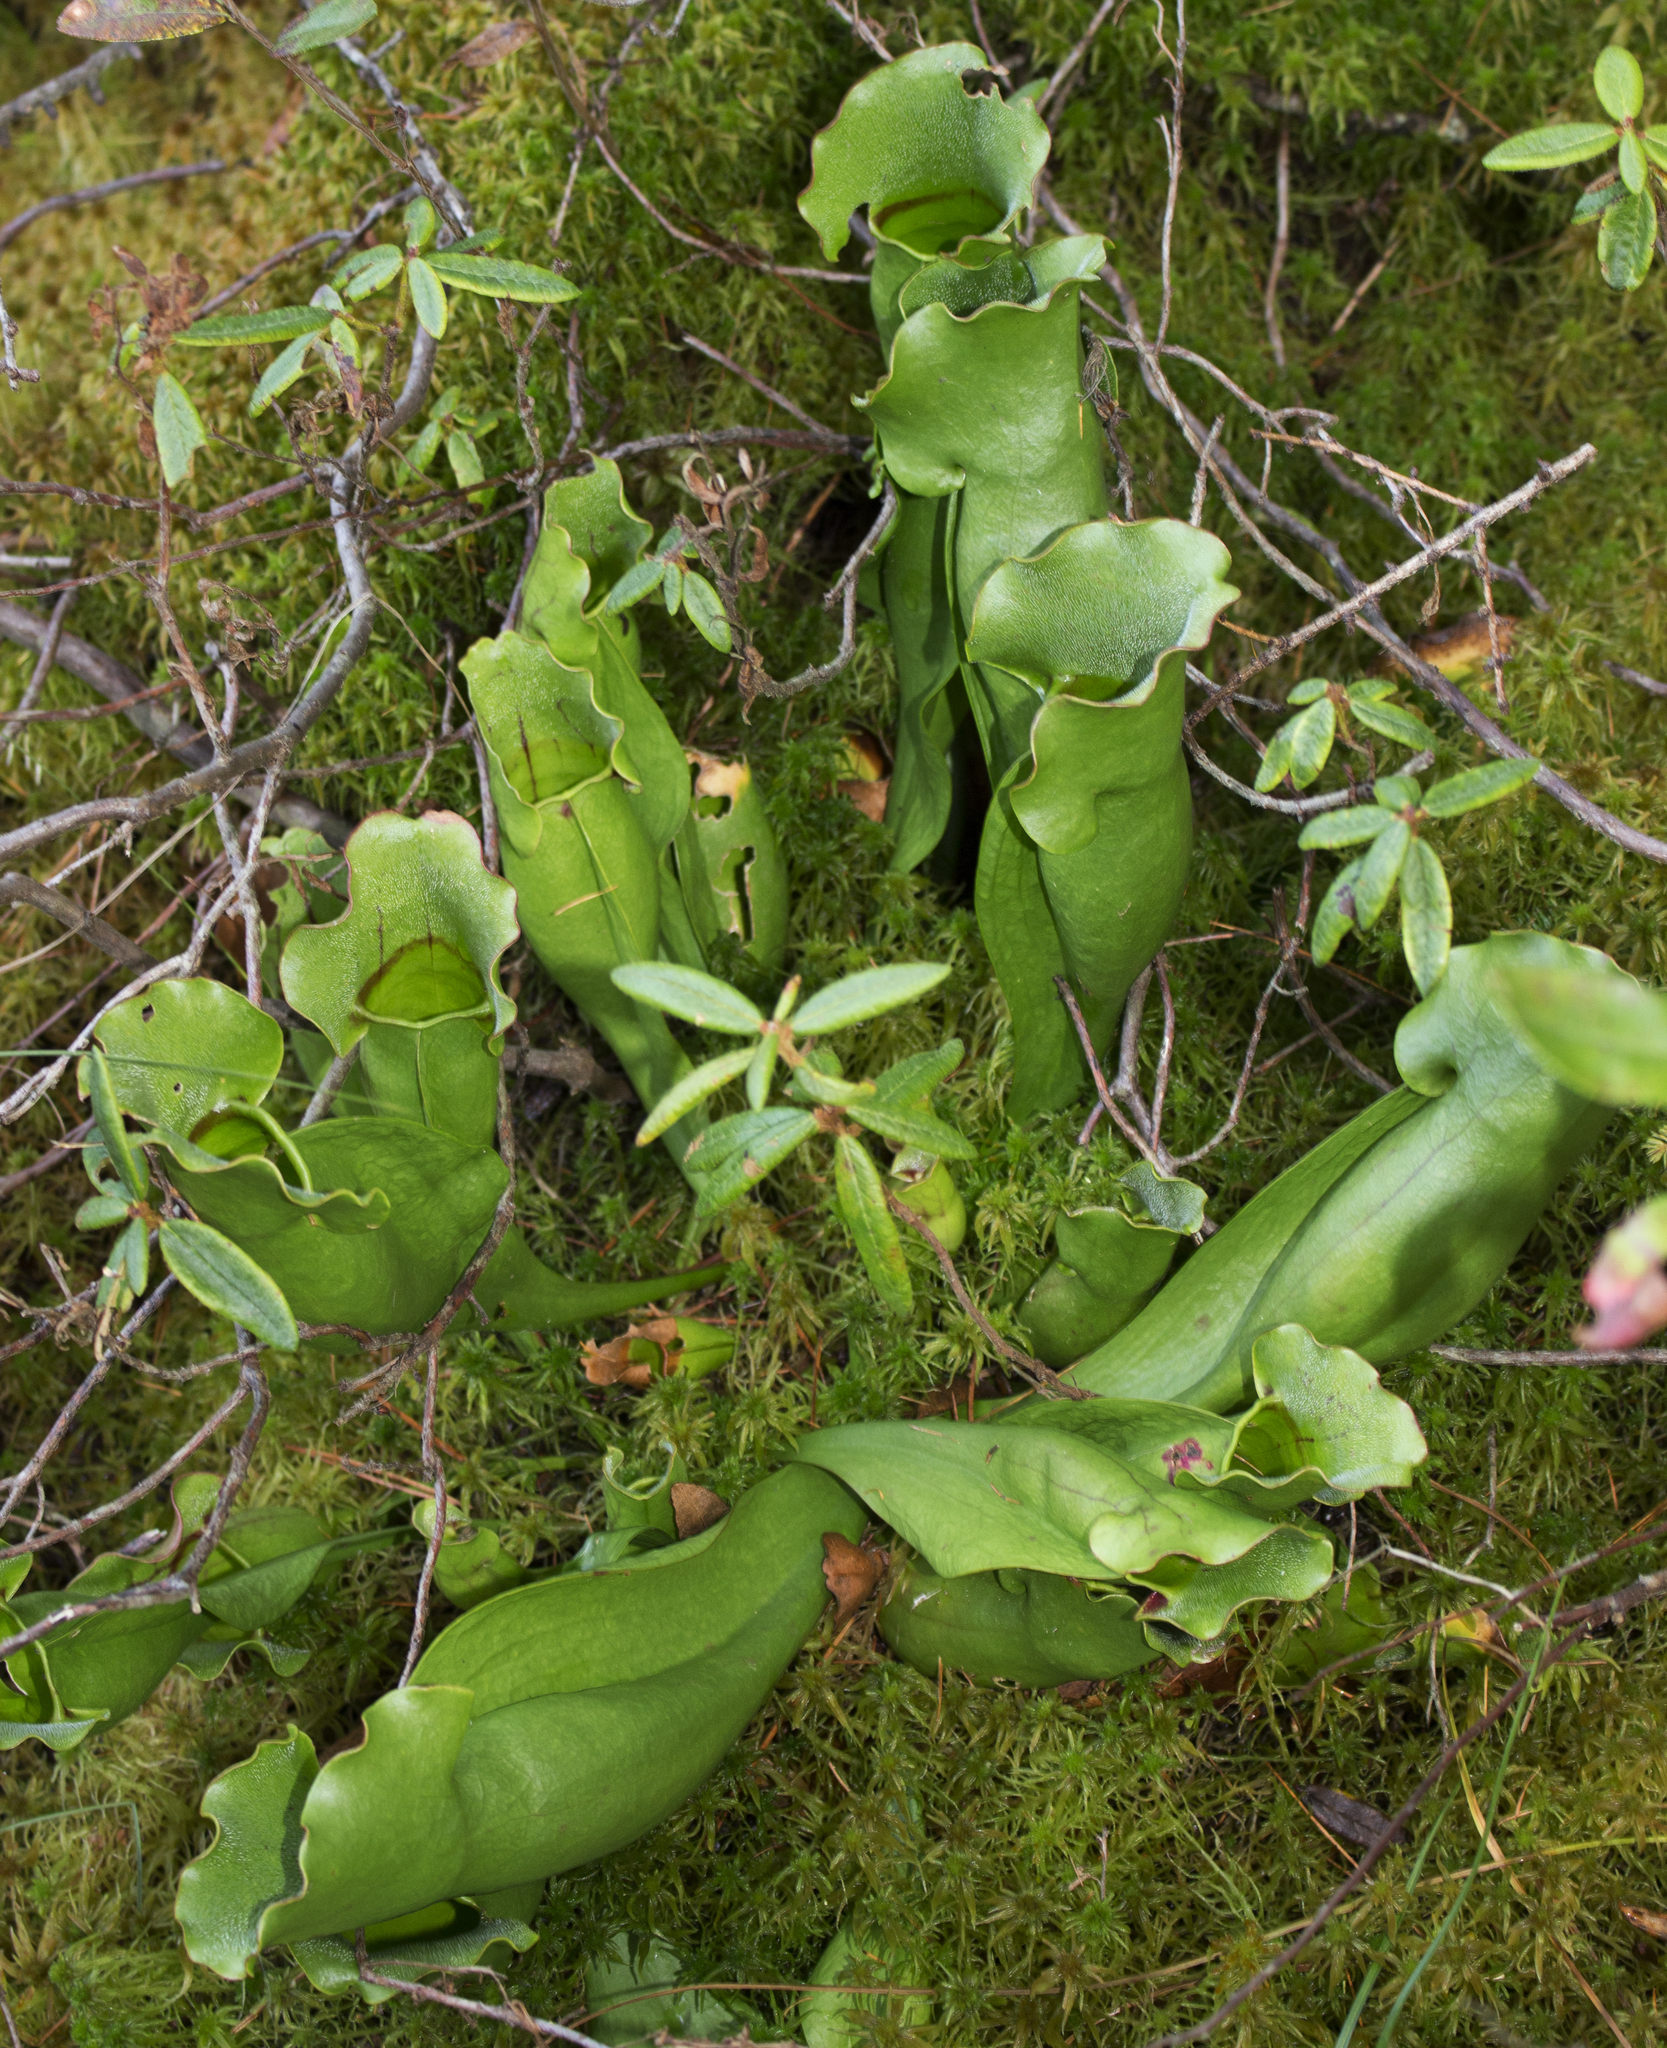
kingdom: Plantae
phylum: Tracheophyta
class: Magnoliopsida
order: Ericales
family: Sarraceniaceae
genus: Sarracenia
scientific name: Sarracenia purpurea
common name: Pitcherplant
